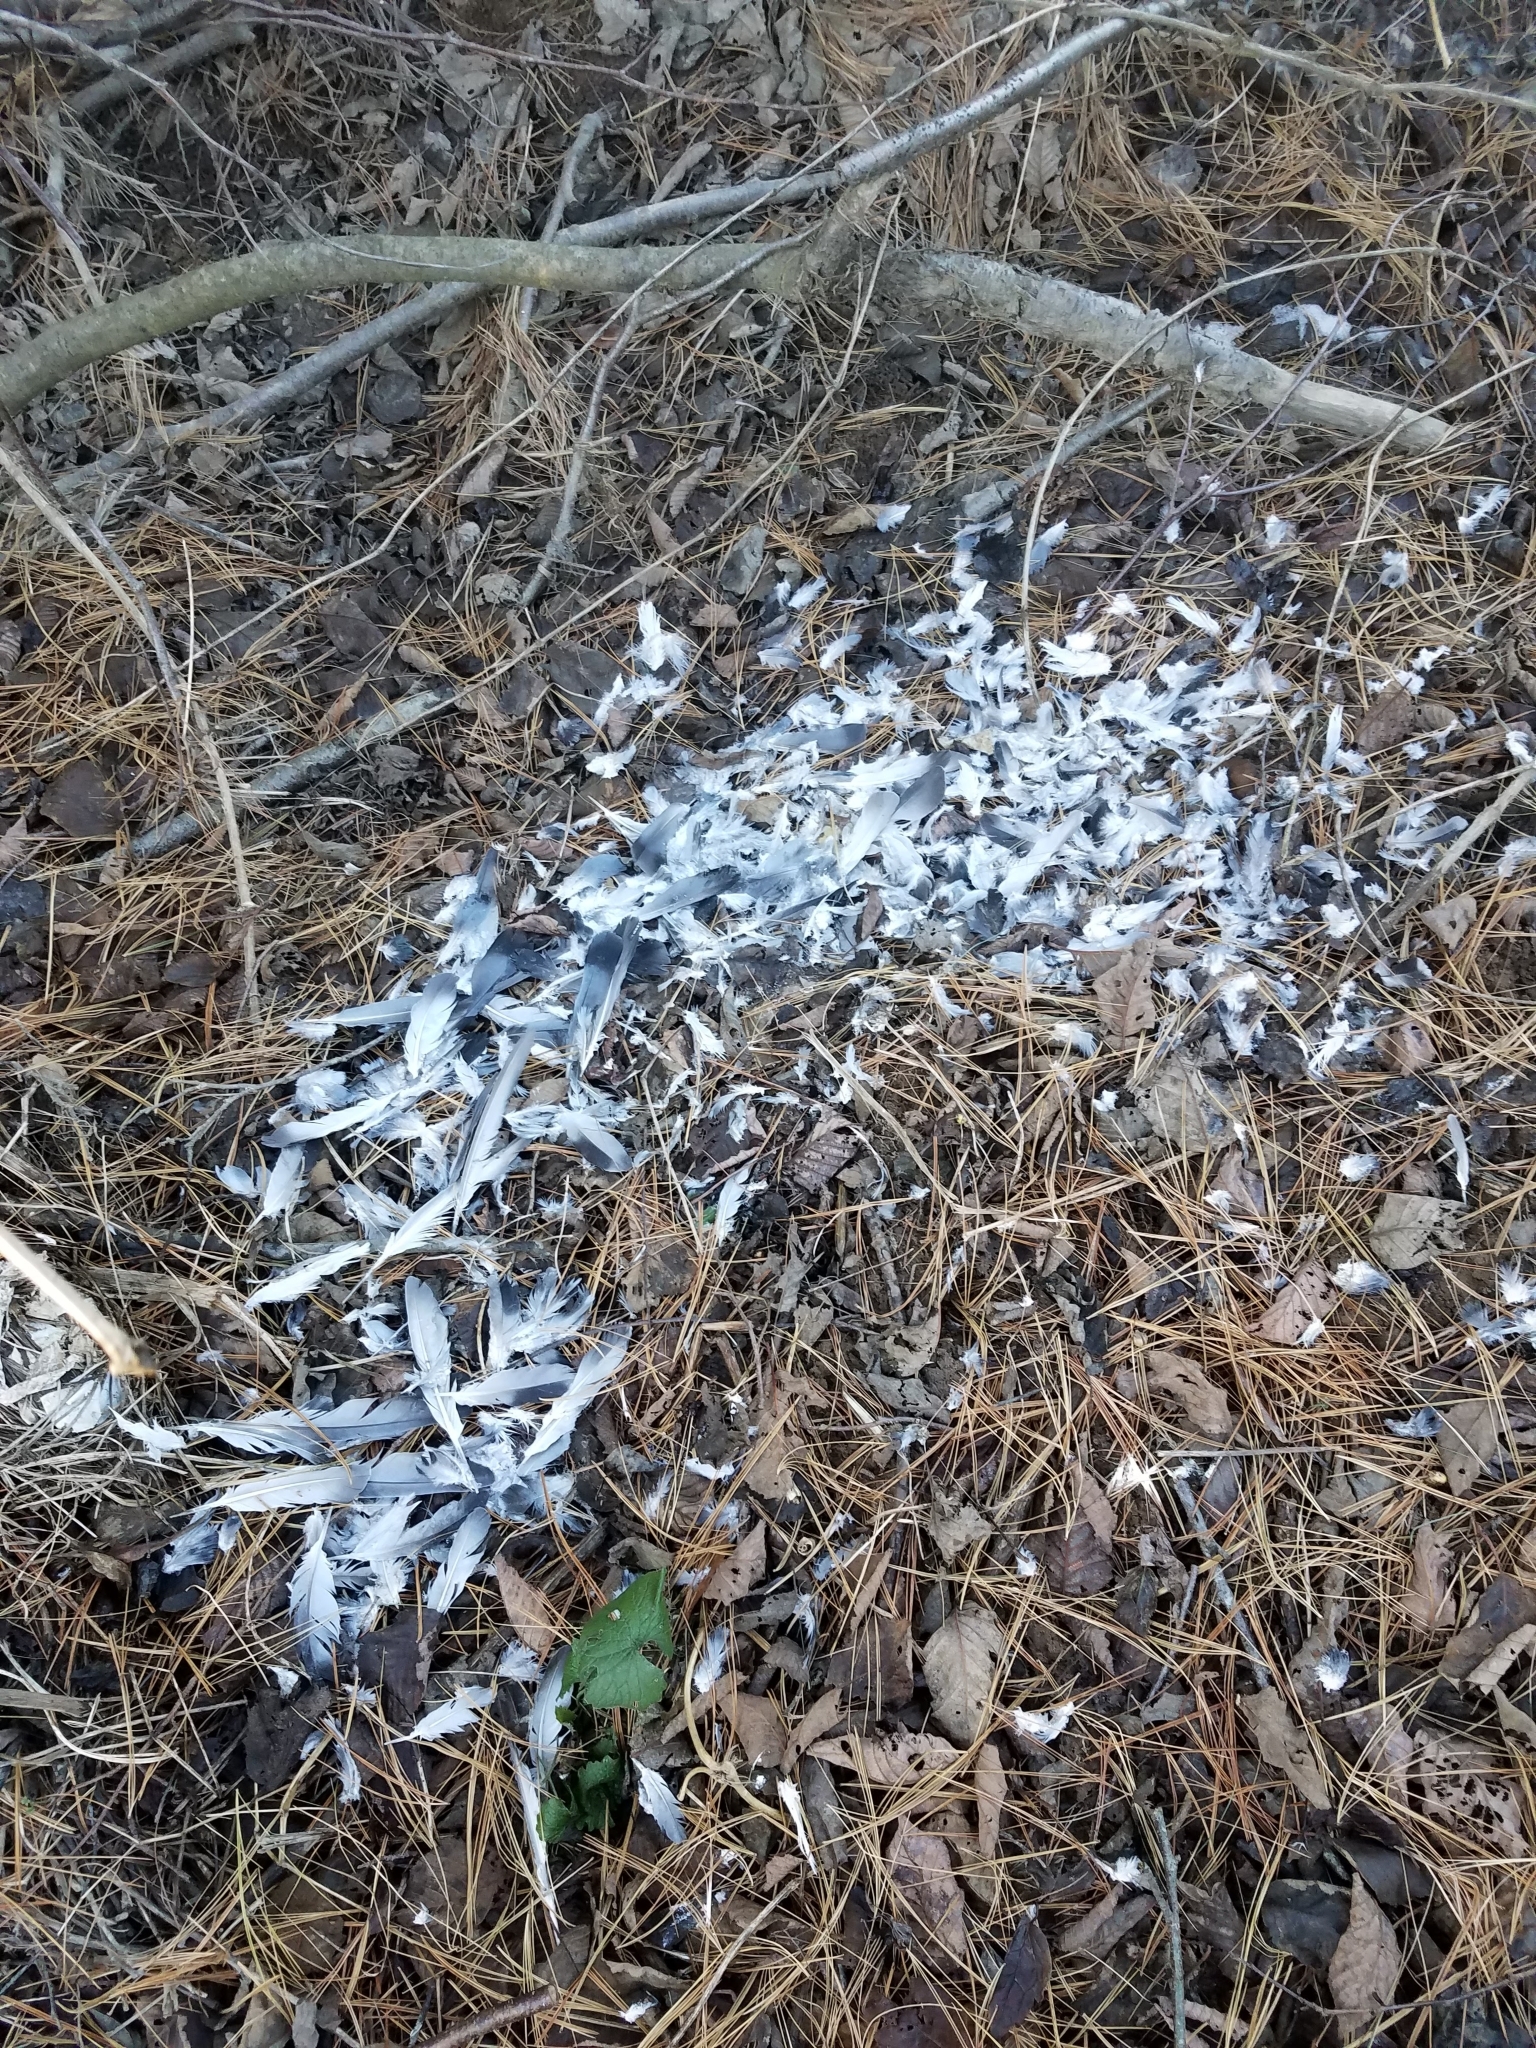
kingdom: Animalia
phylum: Chordata
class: Aves
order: Columbiformes
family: Columbidae
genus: Columba
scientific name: Columba livia
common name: Rock pigeon
